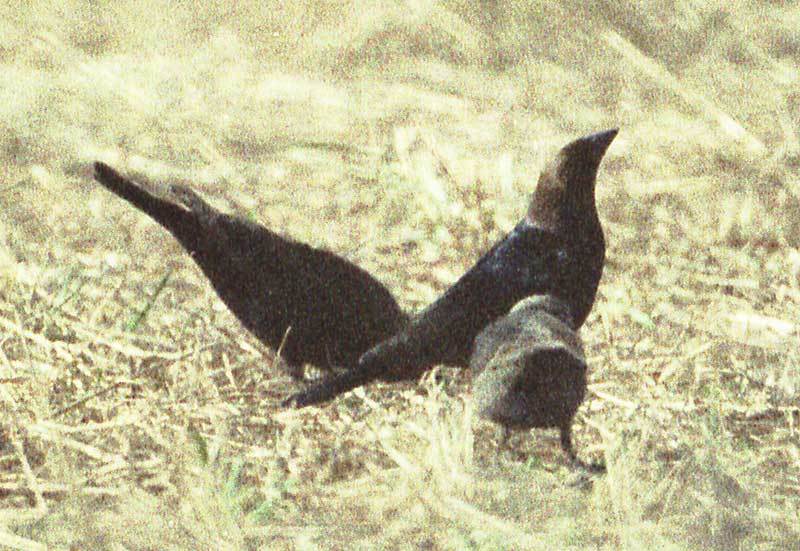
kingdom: Animalia
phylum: Chordata
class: Aves
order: Passeriformes
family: Icteridae
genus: Molothrus
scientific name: Molothrus ater
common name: Brown-headed cowbird
